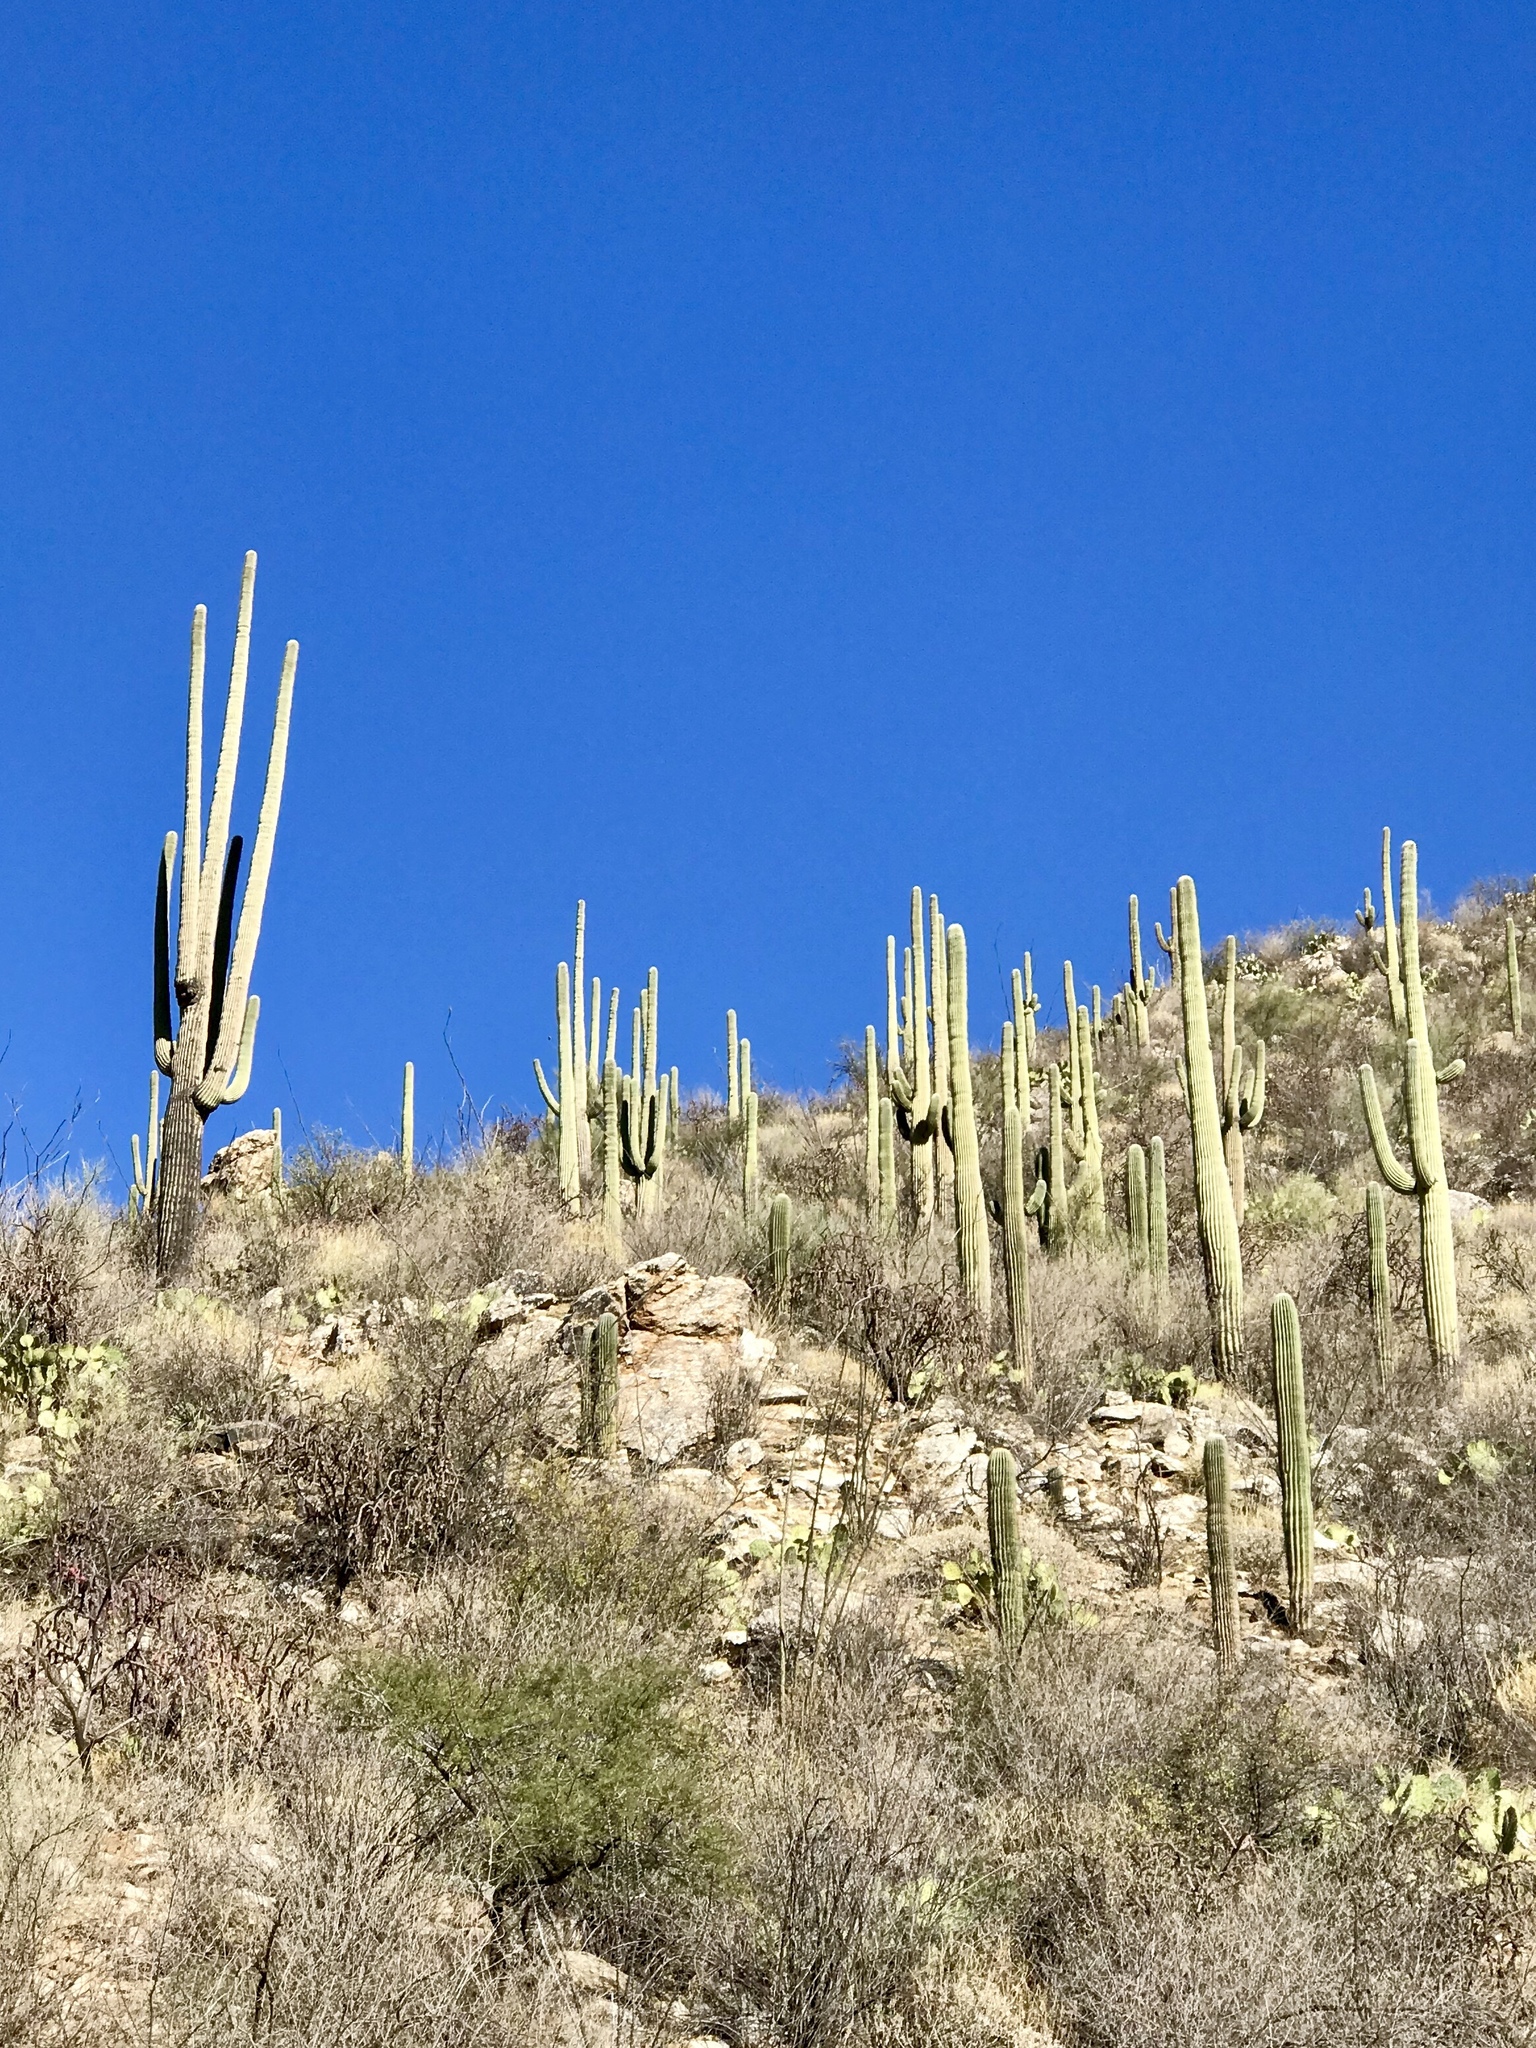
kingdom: Plantae
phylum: Tracheophyta
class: Magnoliopsida
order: Caryophyllales
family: Cactaceae
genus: Carnegiea
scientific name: Carnegiea gigantea
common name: Saguaro
